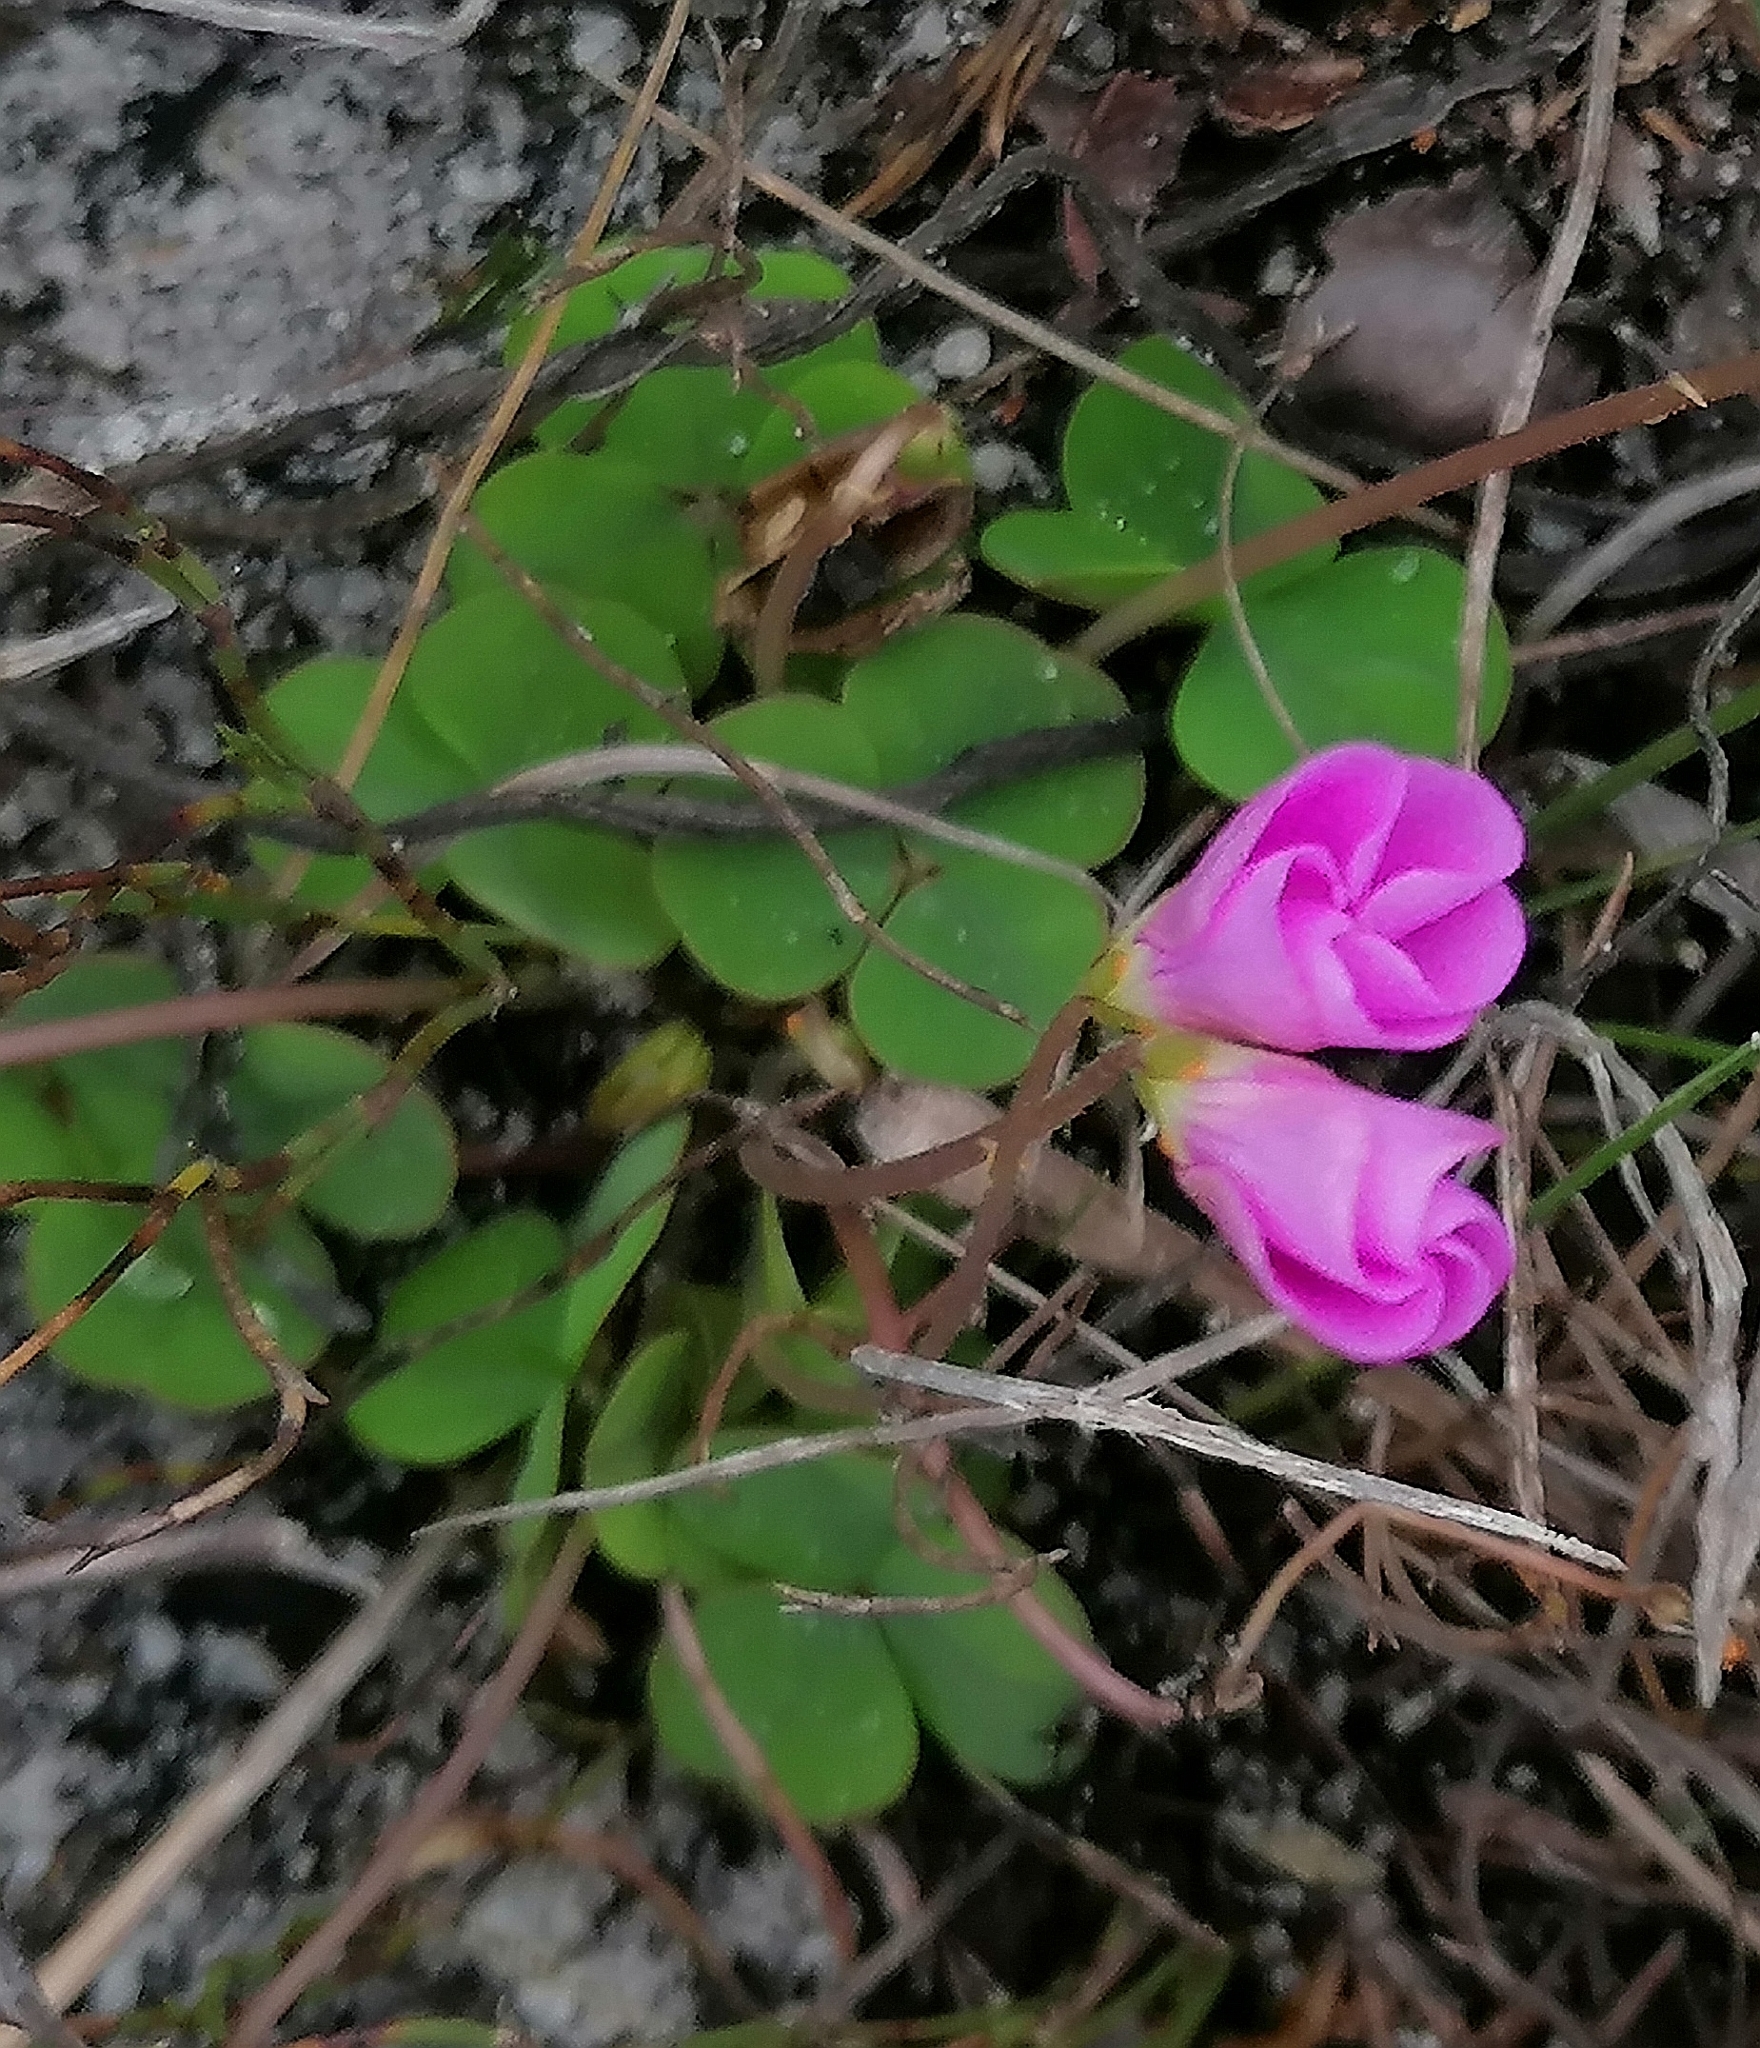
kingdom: Plantae
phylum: Tracheophyta
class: Magnoliopsida
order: Oxalidales
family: Oxalidaceae
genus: Oxalis
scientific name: Oxalis commutata
